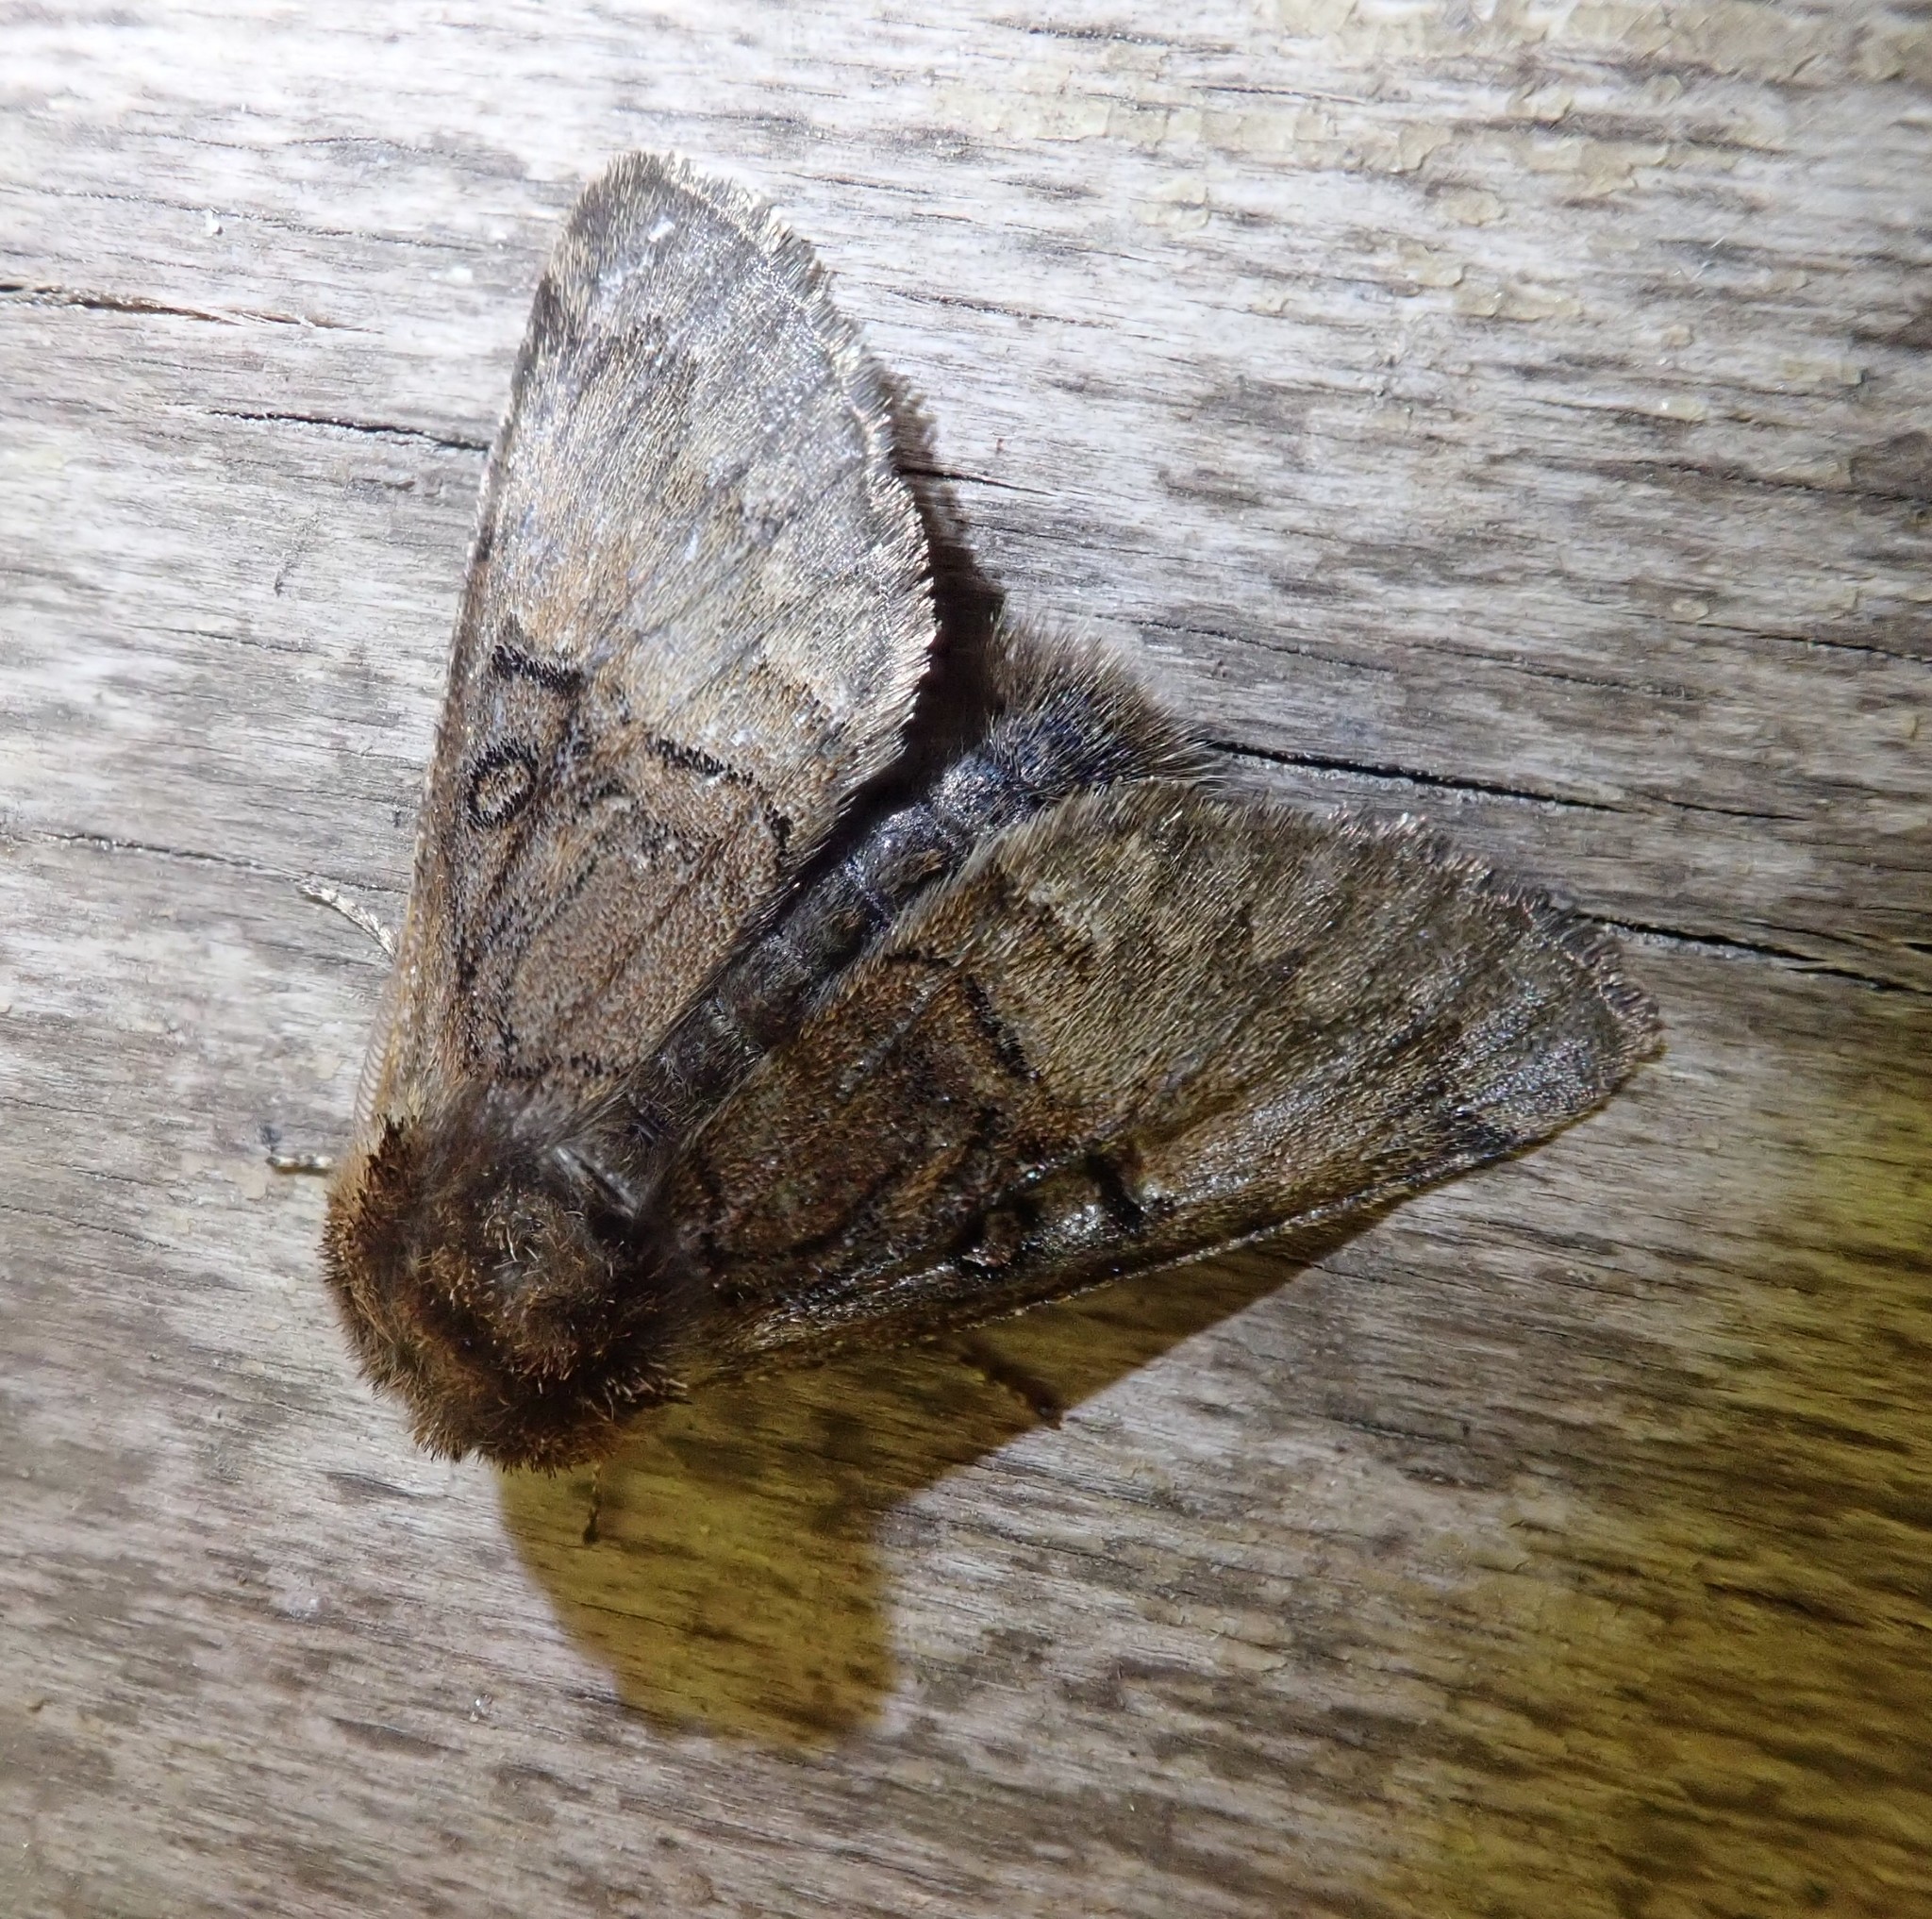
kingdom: Animalia
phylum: Arthropoda
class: Insecta
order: Lepidoptera
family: Noctuidae
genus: Colocasia
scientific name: Colocasia coryli
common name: Nut-tree tussock
